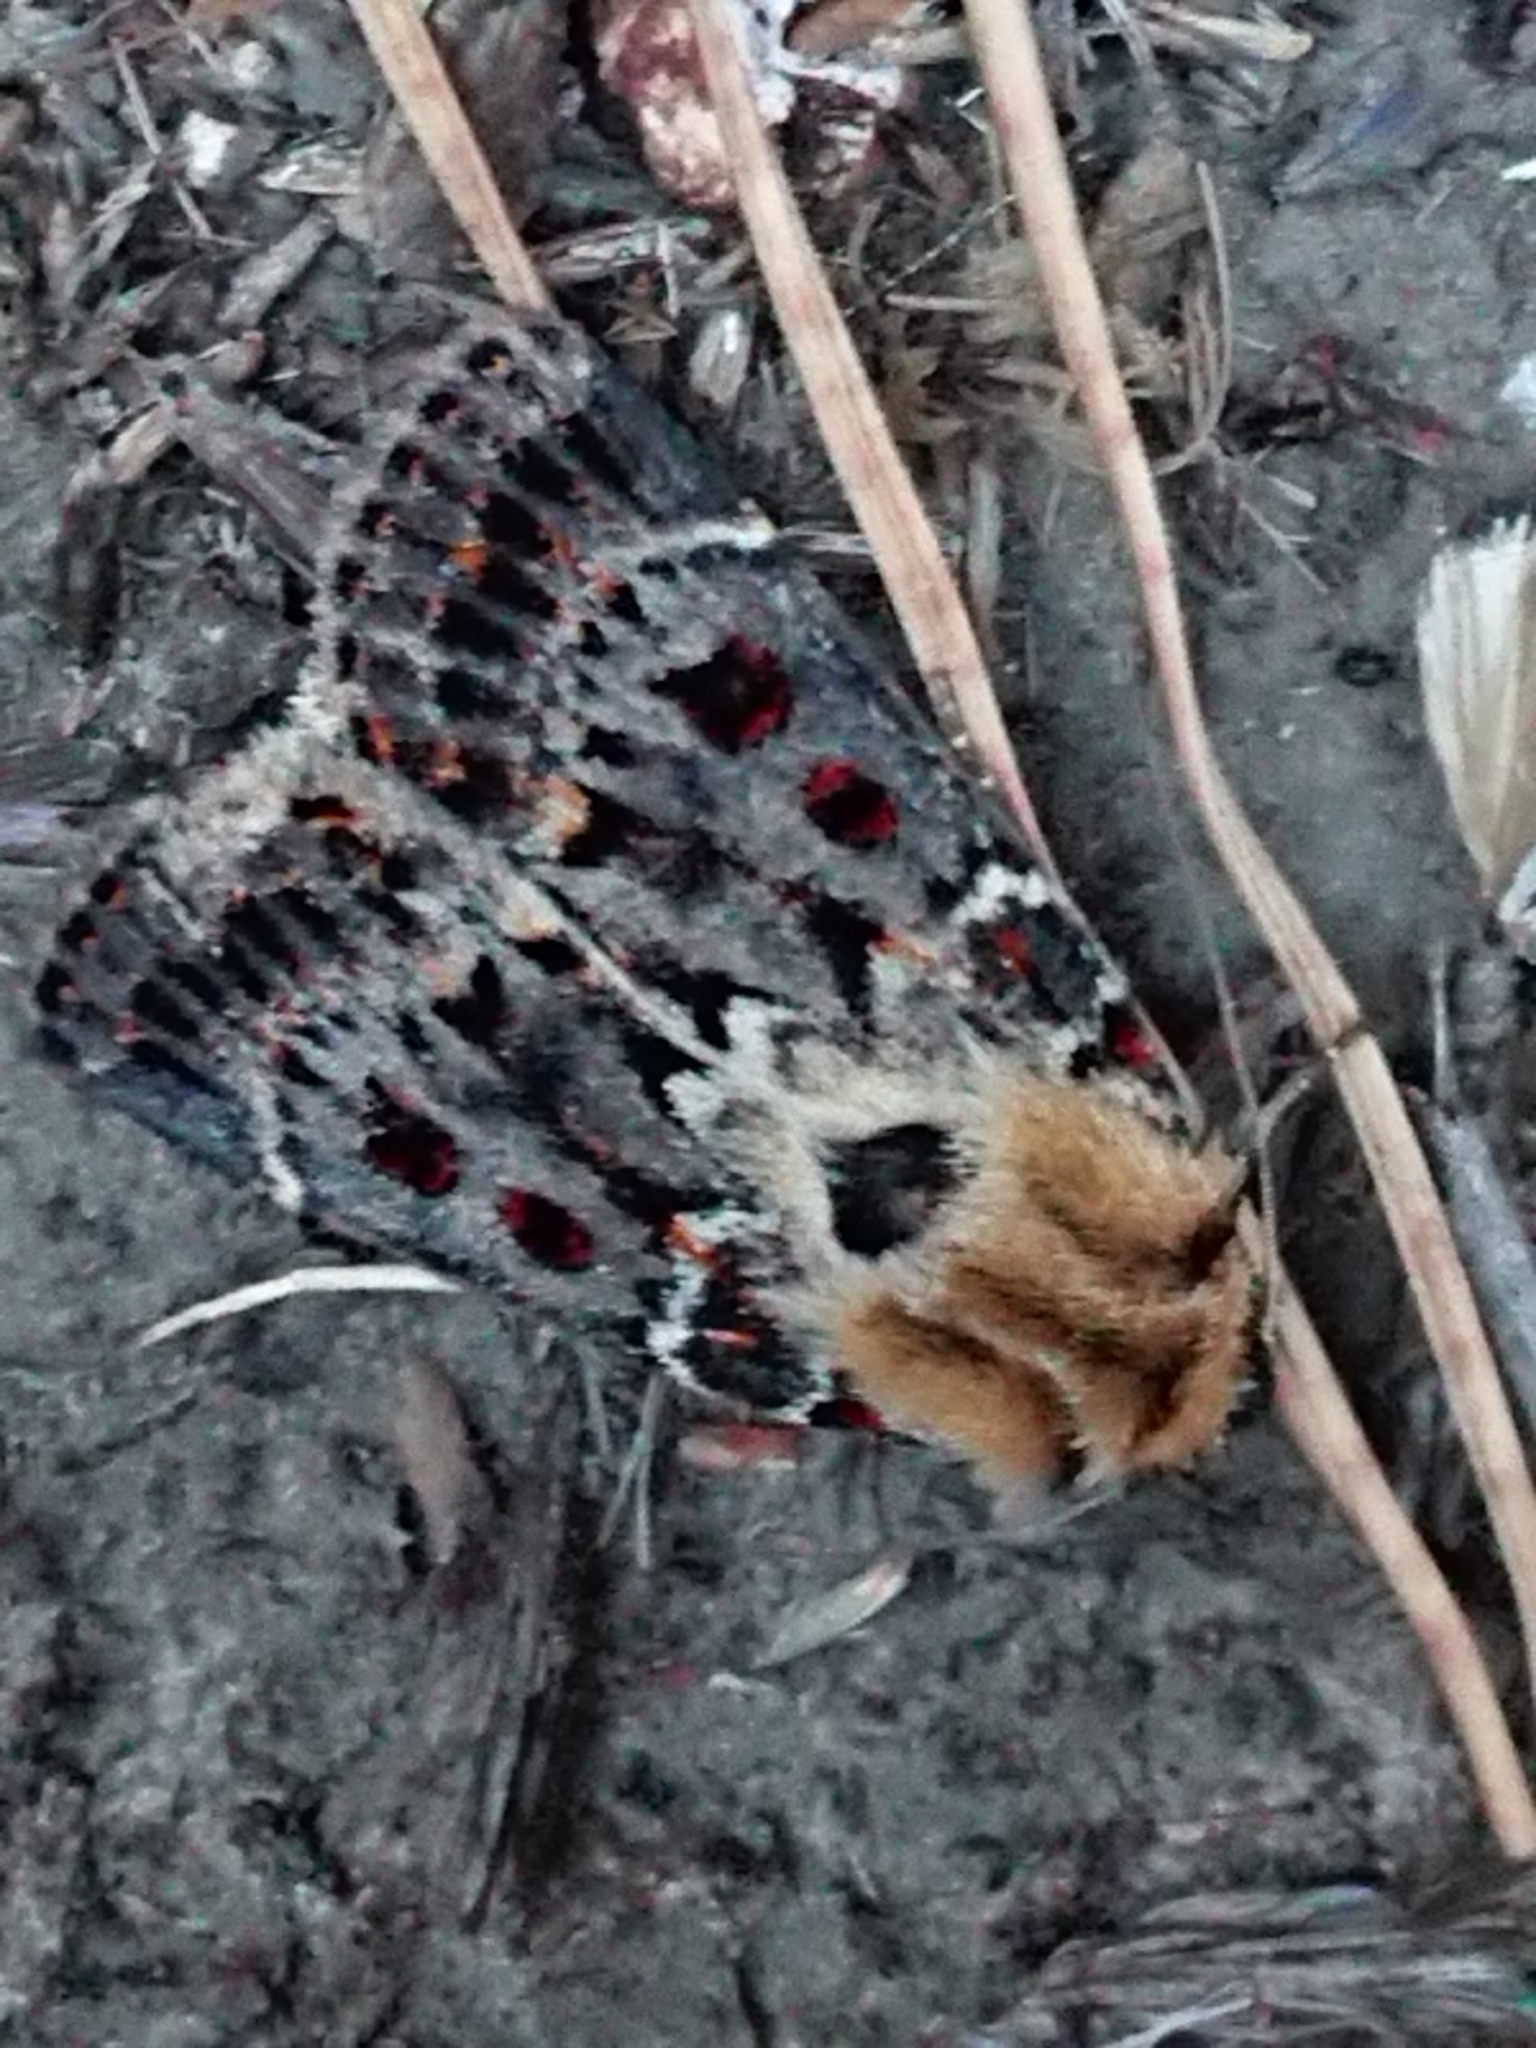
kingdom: Animalia
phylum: Arthropoda
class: Insecta
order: Lepidoptera
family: Noctuidae
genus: Proteuxoa
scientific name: Proteuxoa sanguinipuncta
